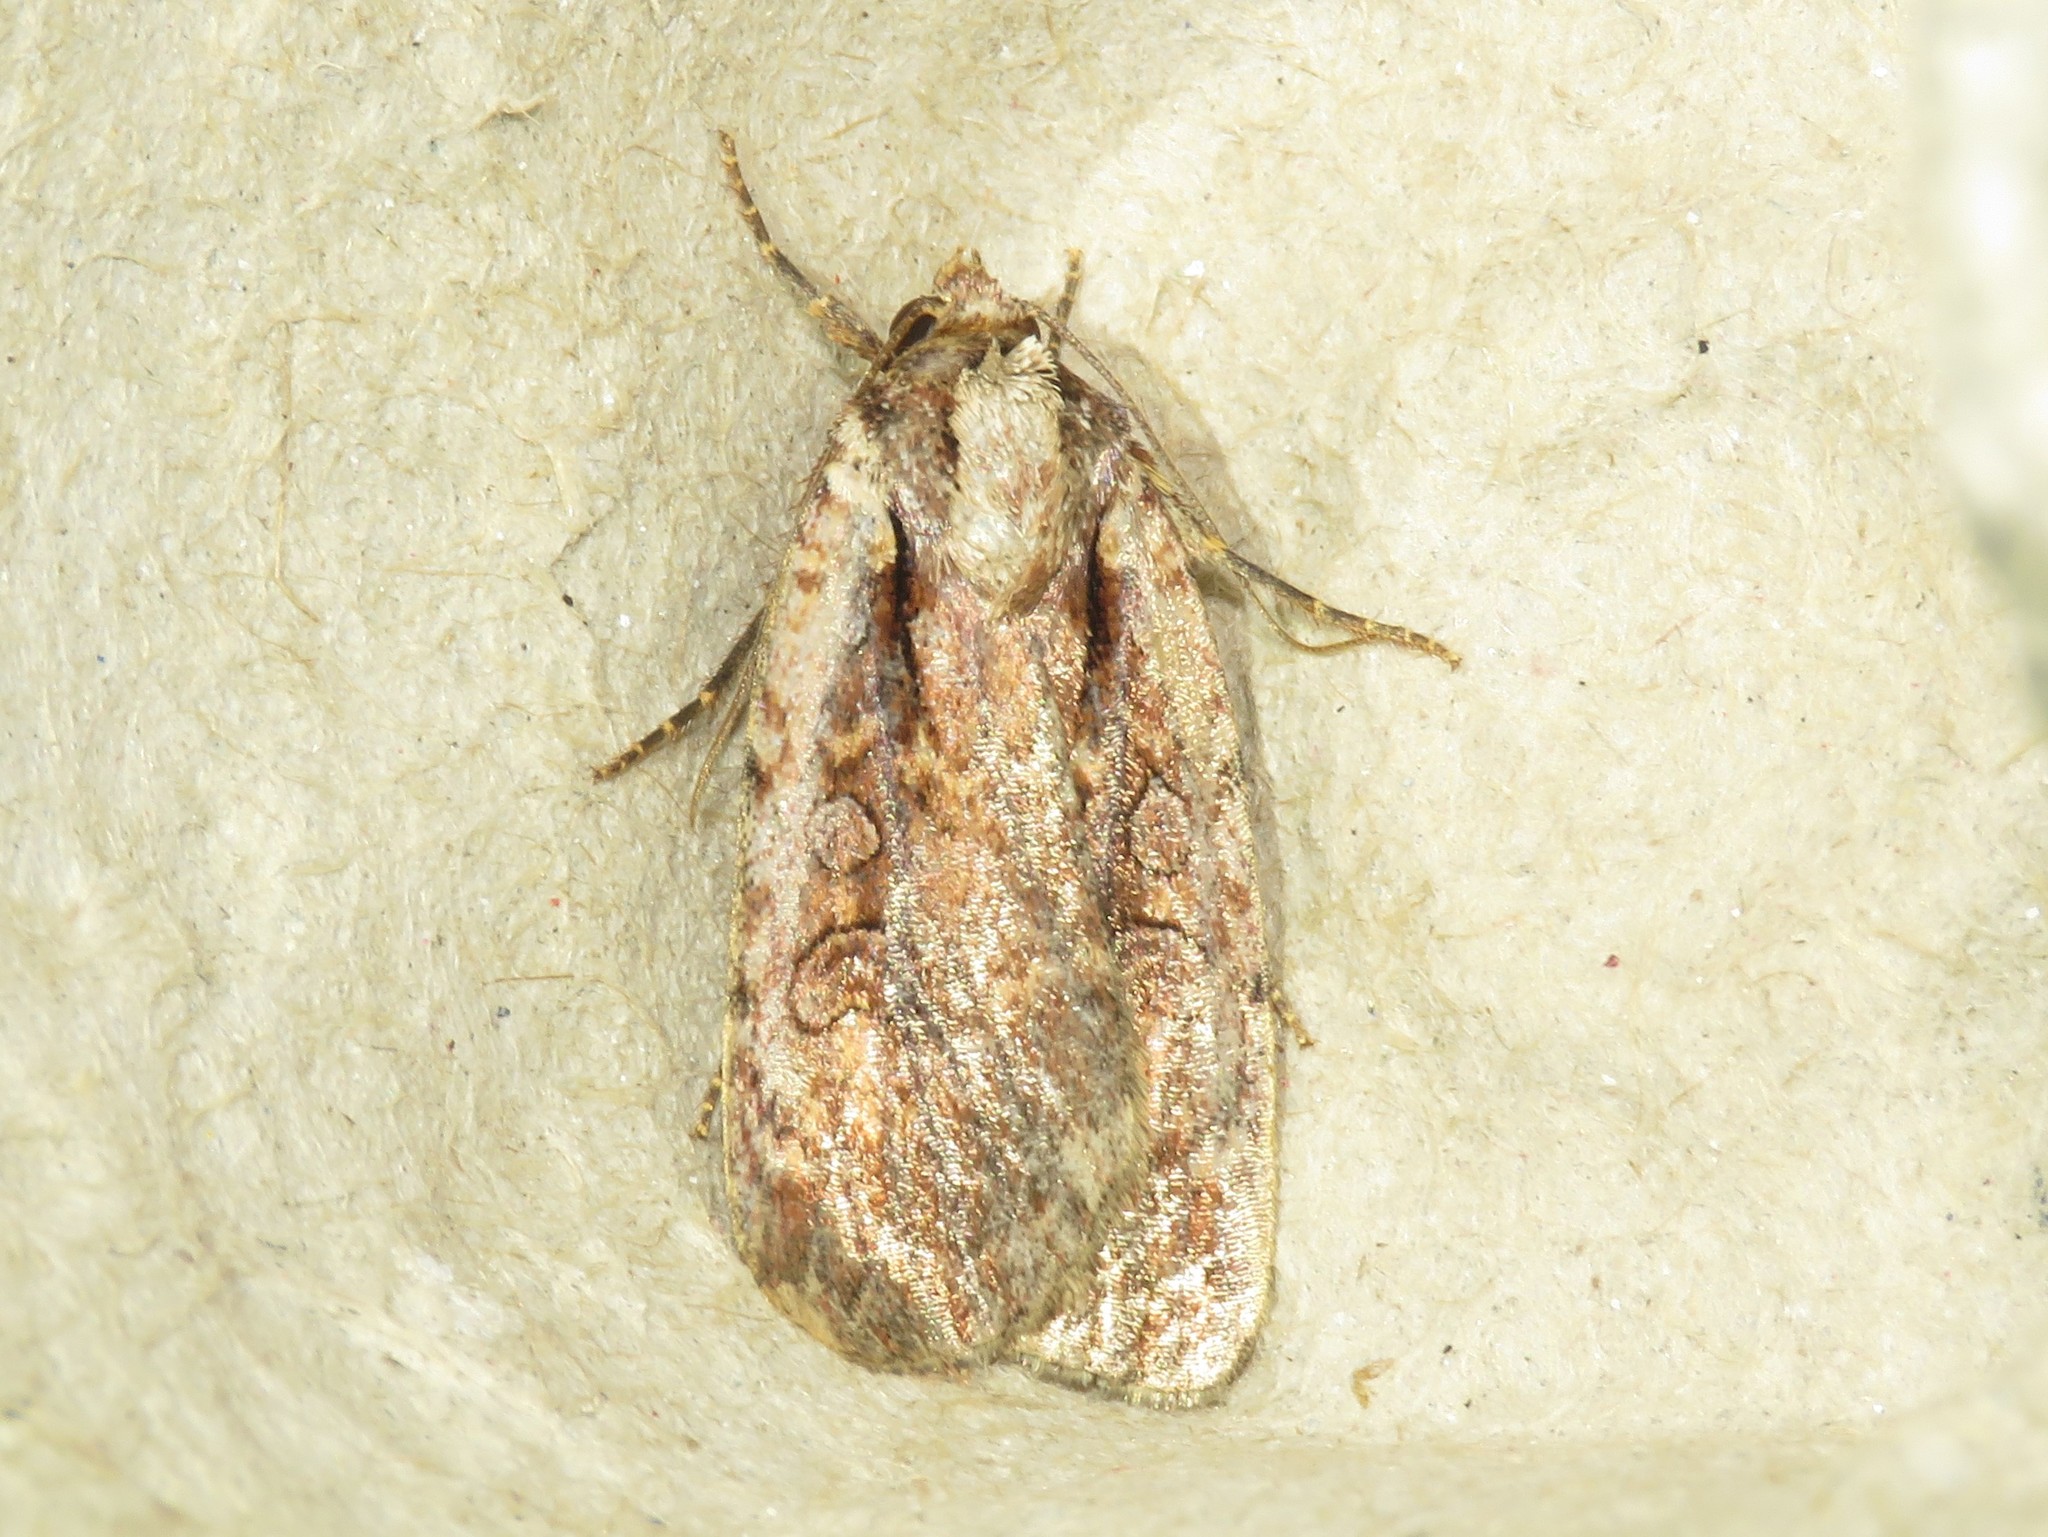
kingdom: Animalia
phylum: Arthropoda
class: Insecta
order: Lepidoptera
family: Noctuidae
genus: Eueretagrotis
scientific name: Eueretagrotis attentus
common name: Attentive dart
